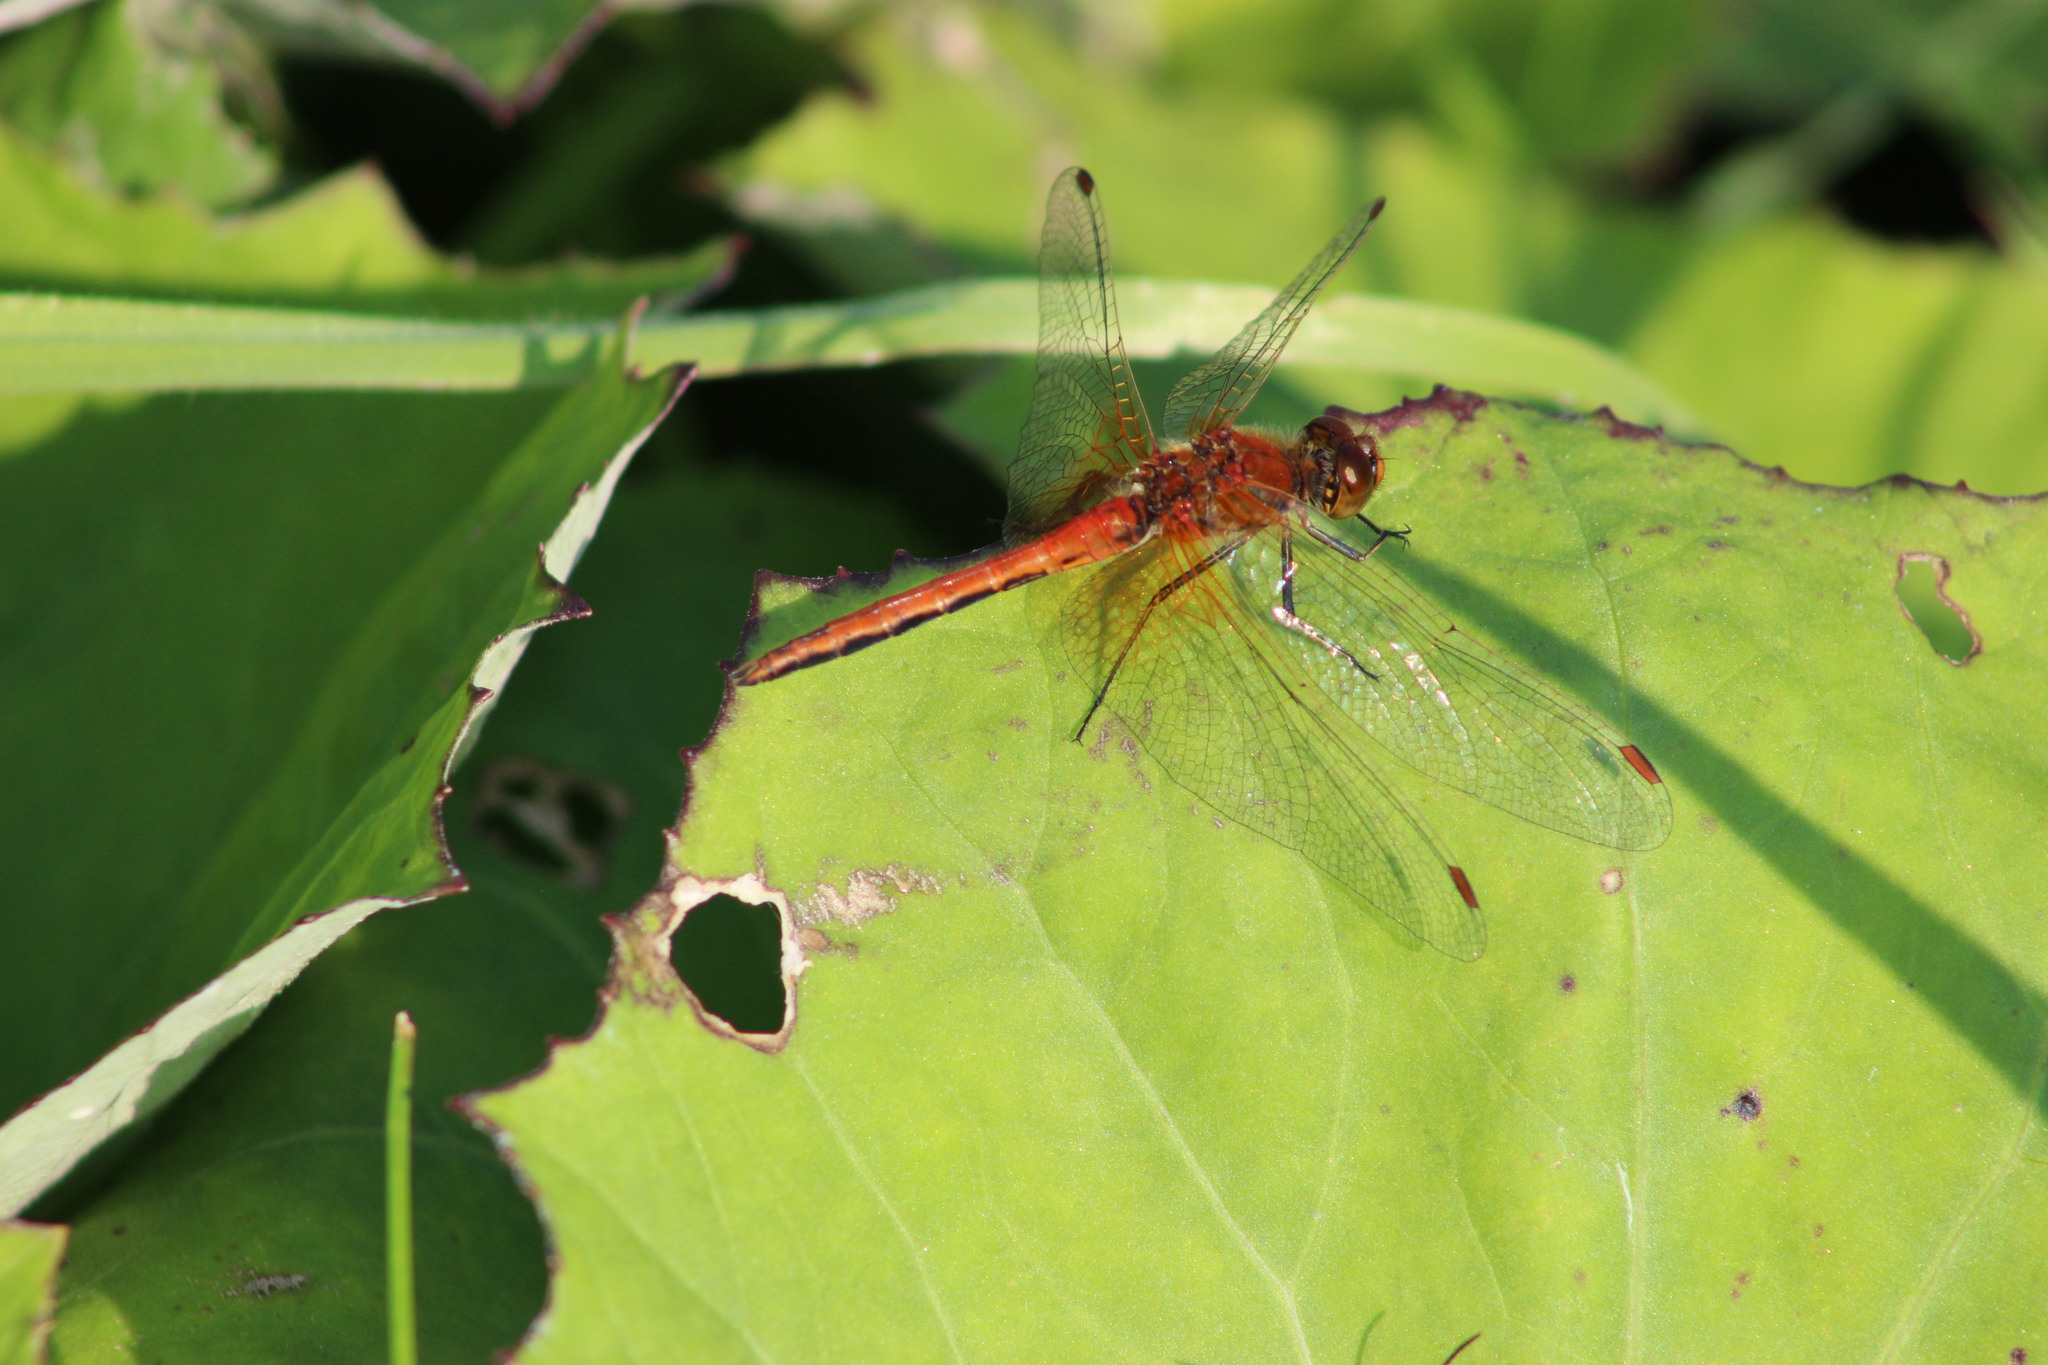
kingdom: Animalia
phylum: Arthropoda
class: Insecta
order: Odonata
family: Libellulidae
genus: Sympetrum
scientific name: Sympetrum flaveolum
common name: Yellow-winged darter
